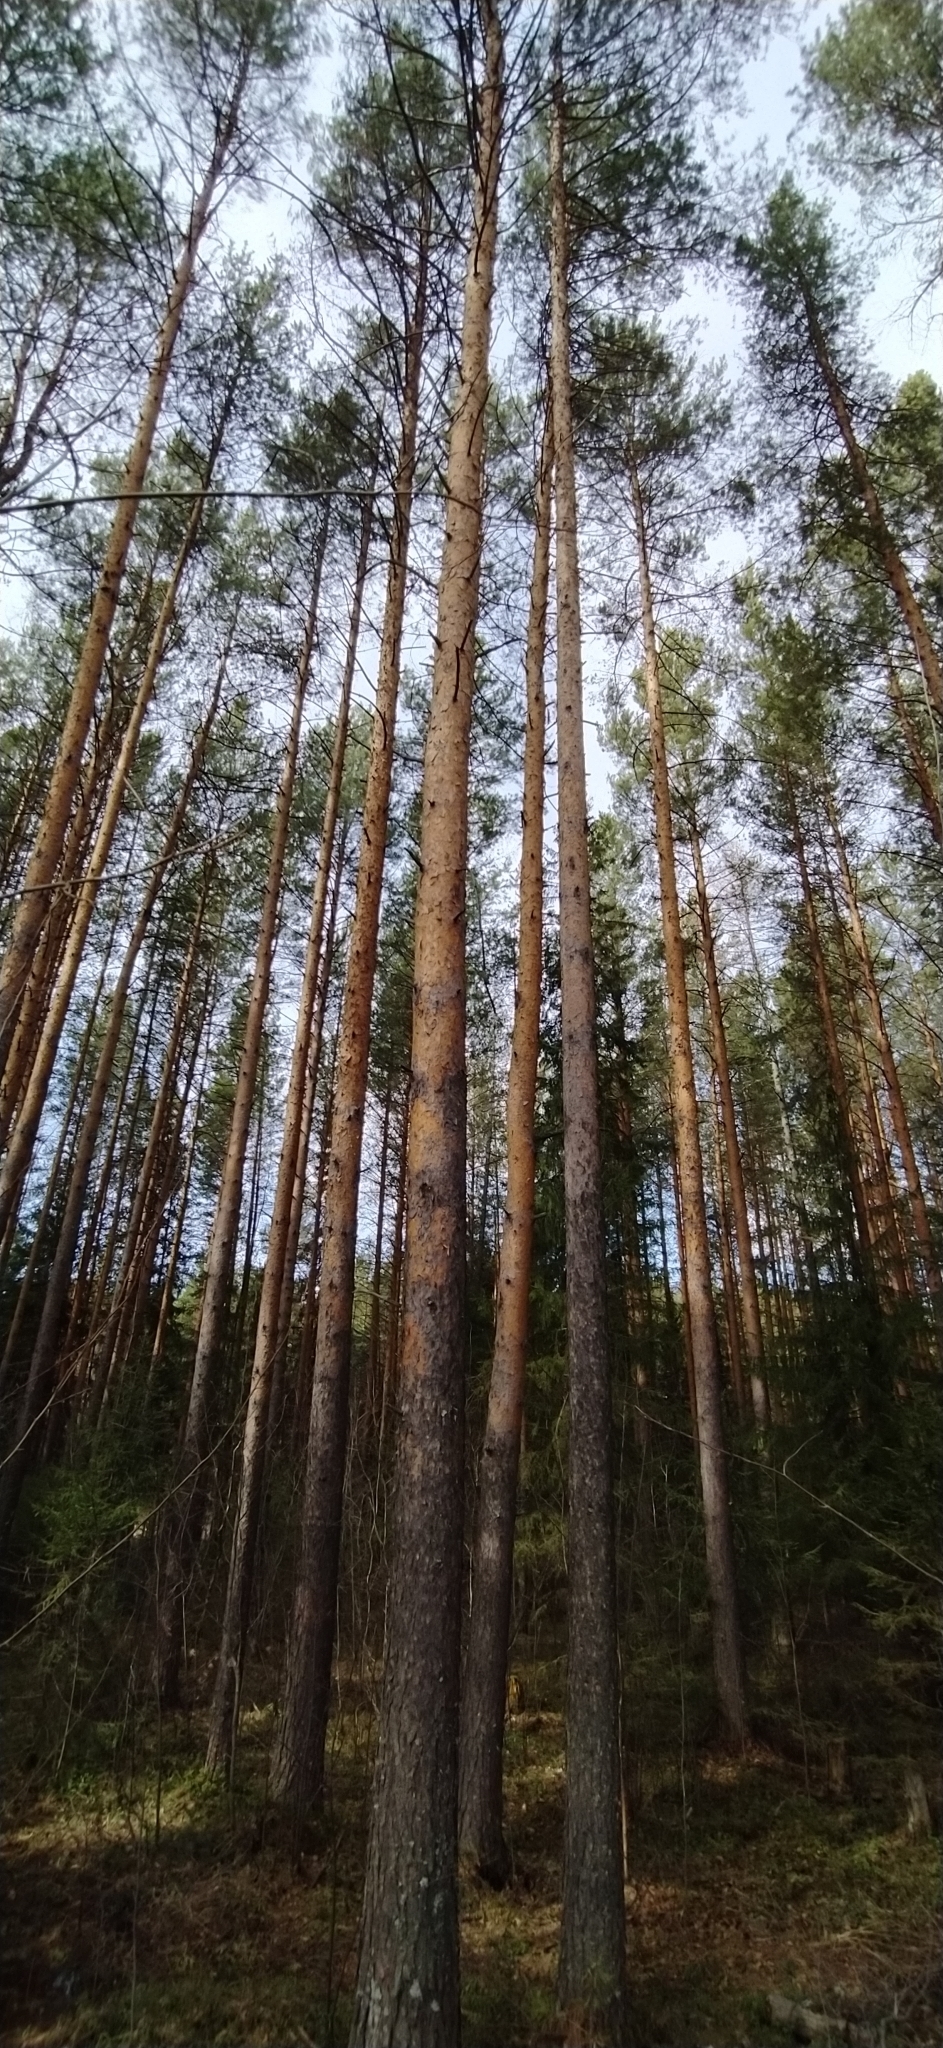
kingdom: Plantae
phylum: Tracheophyta
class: Pinopsida
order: Pinales
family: Pinaceae
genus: Pinus
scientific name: Pinus sylvestris
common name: Scots pine
